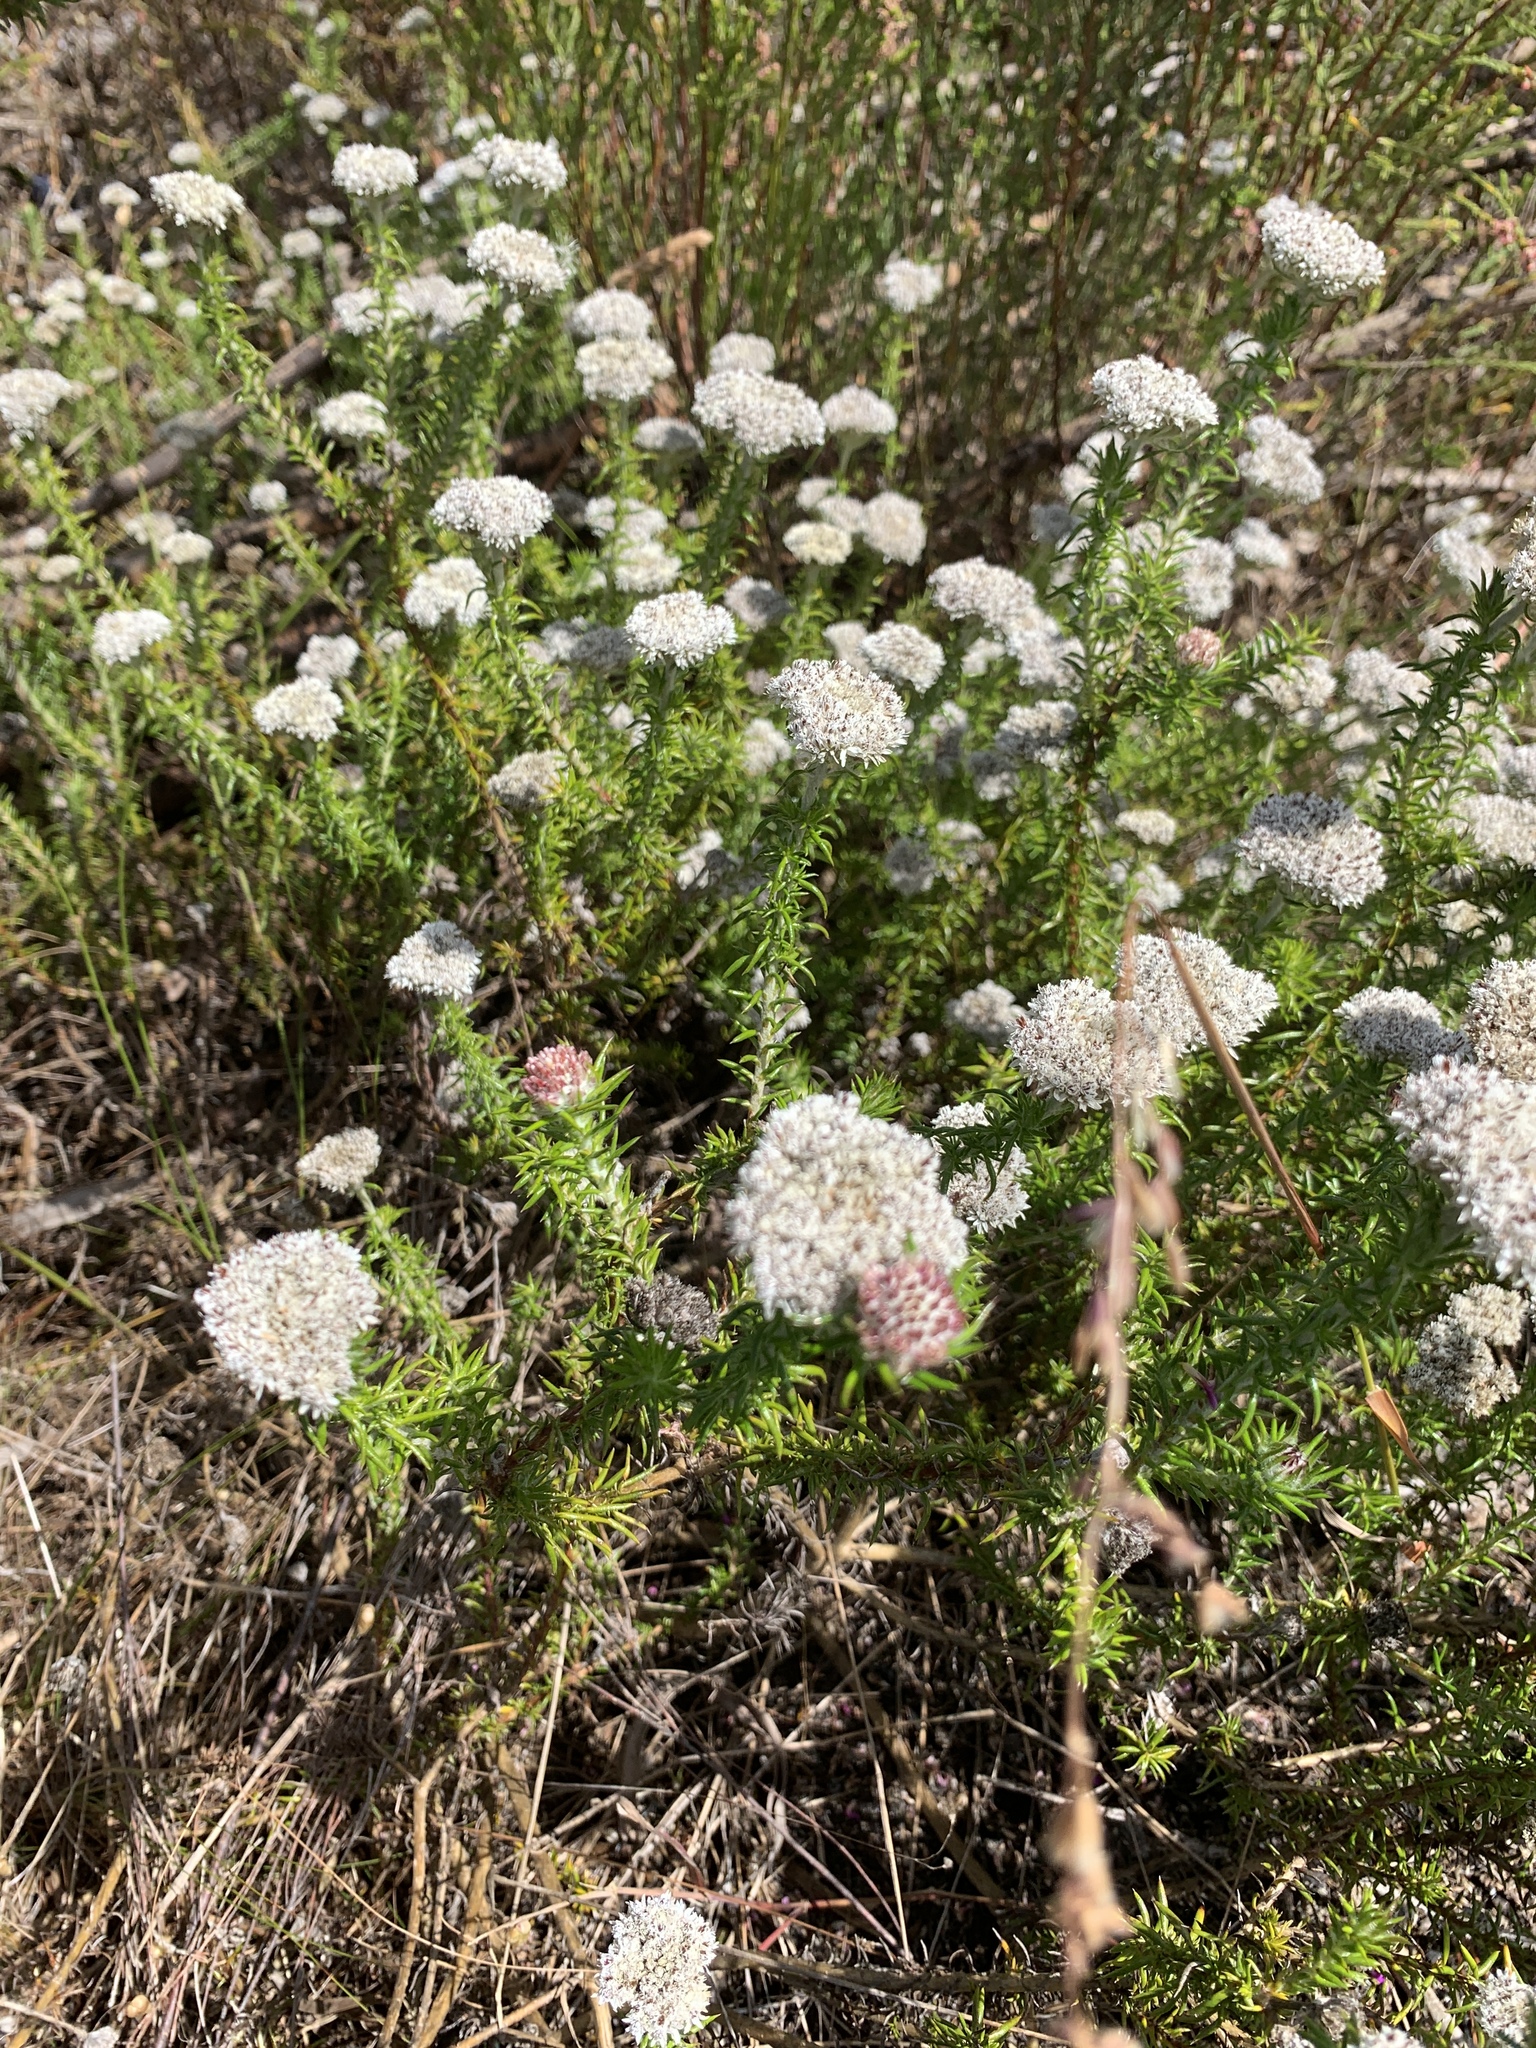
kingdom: Plantae
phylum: Tracheophyta
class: Magnoliopsida
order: Asterales
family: Asteraceae
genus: Metalasia
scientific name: Metalasia pulchella
